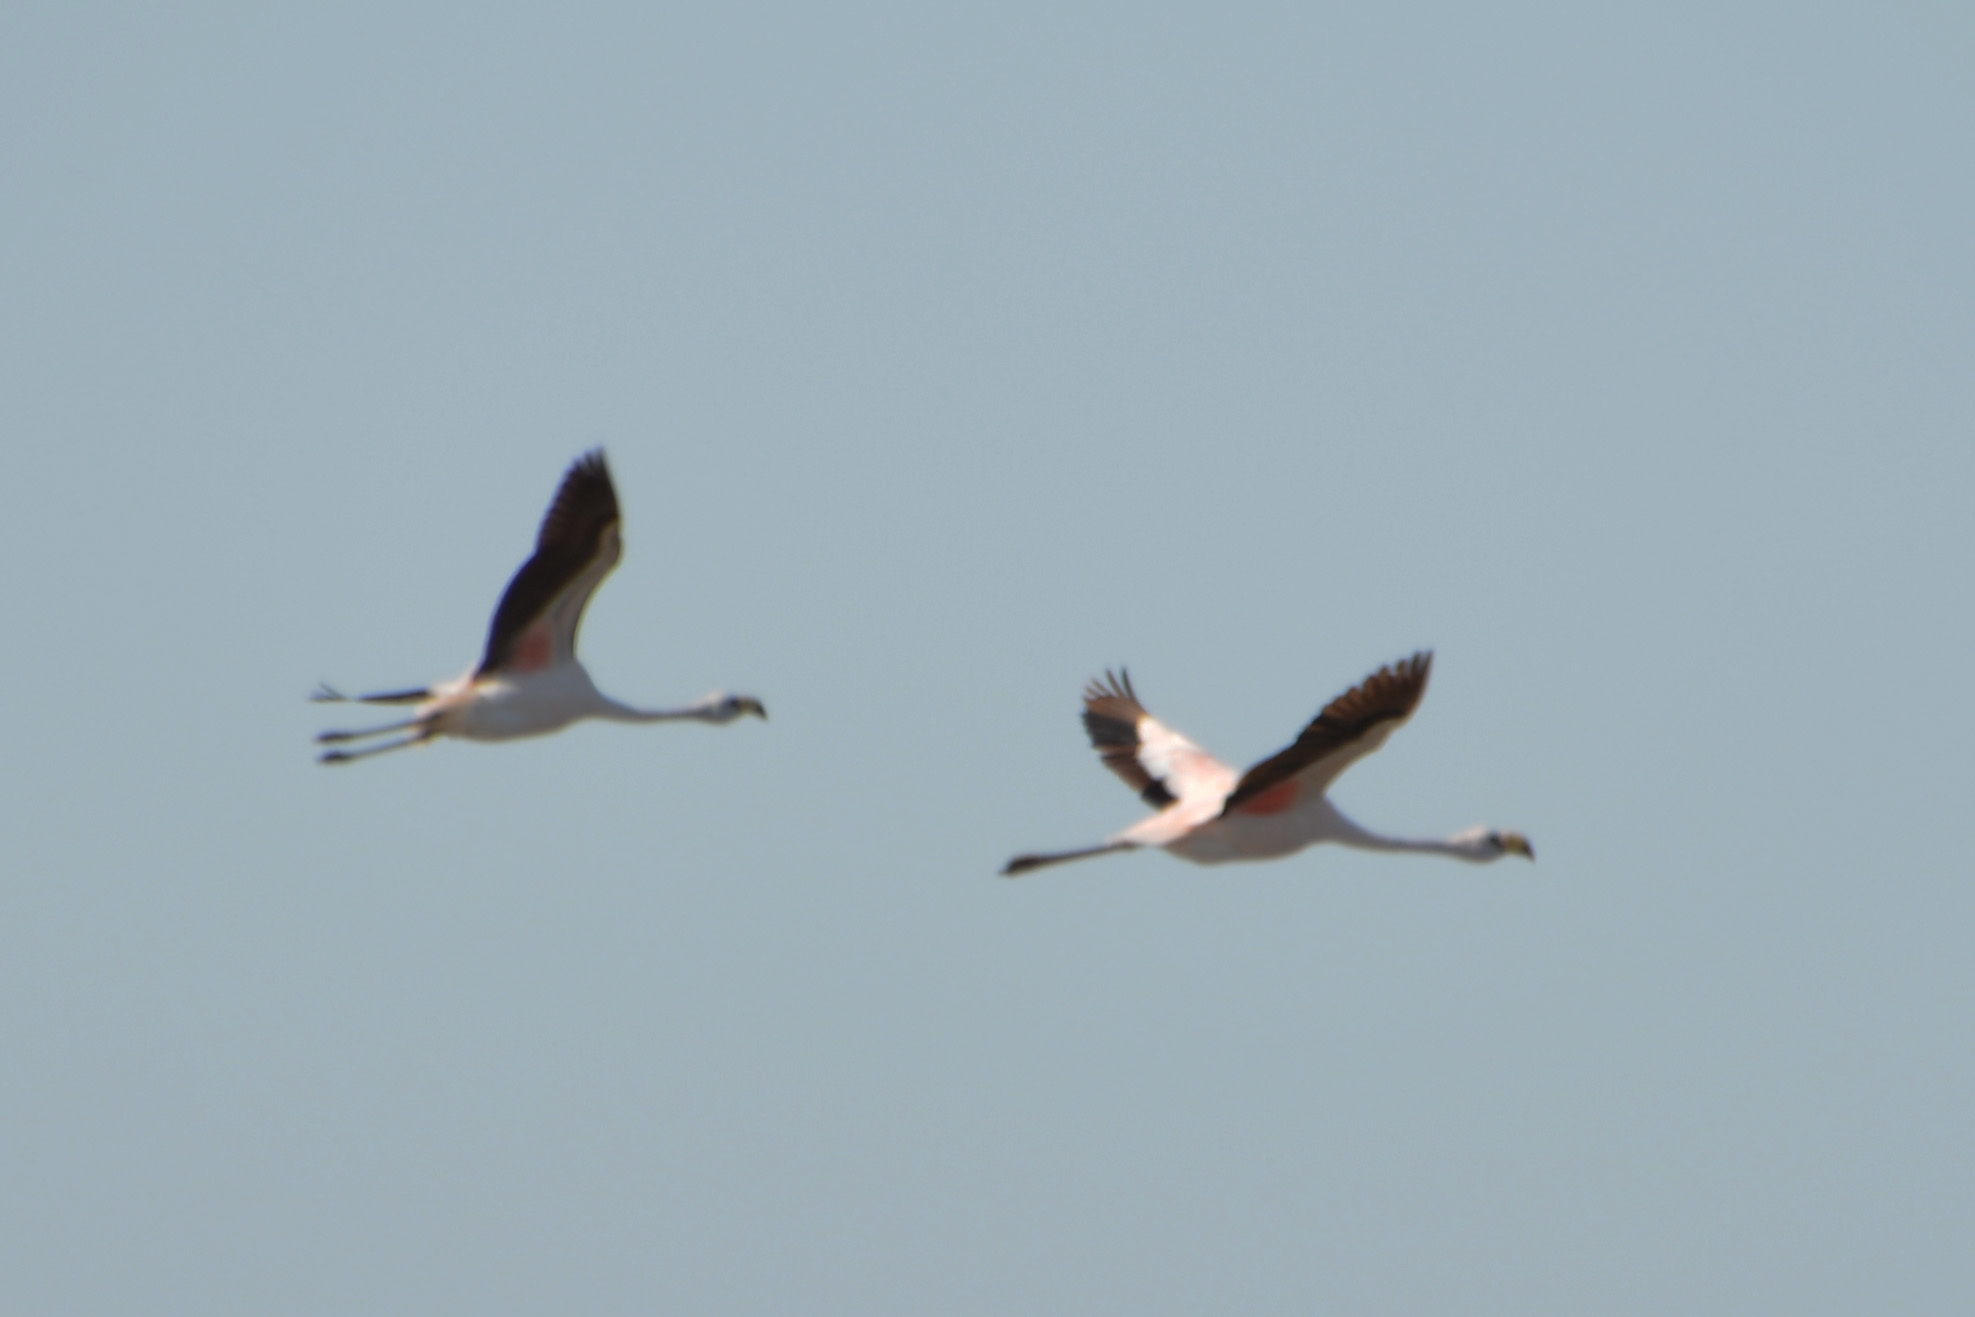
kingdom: Animalia
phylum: Chordata
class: Aves
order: Phoenicopteriformes
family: Phoenicopteridae
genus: Phoenicoparrus
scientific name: Phoenicoparrus jamesi
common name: James's flamingo
